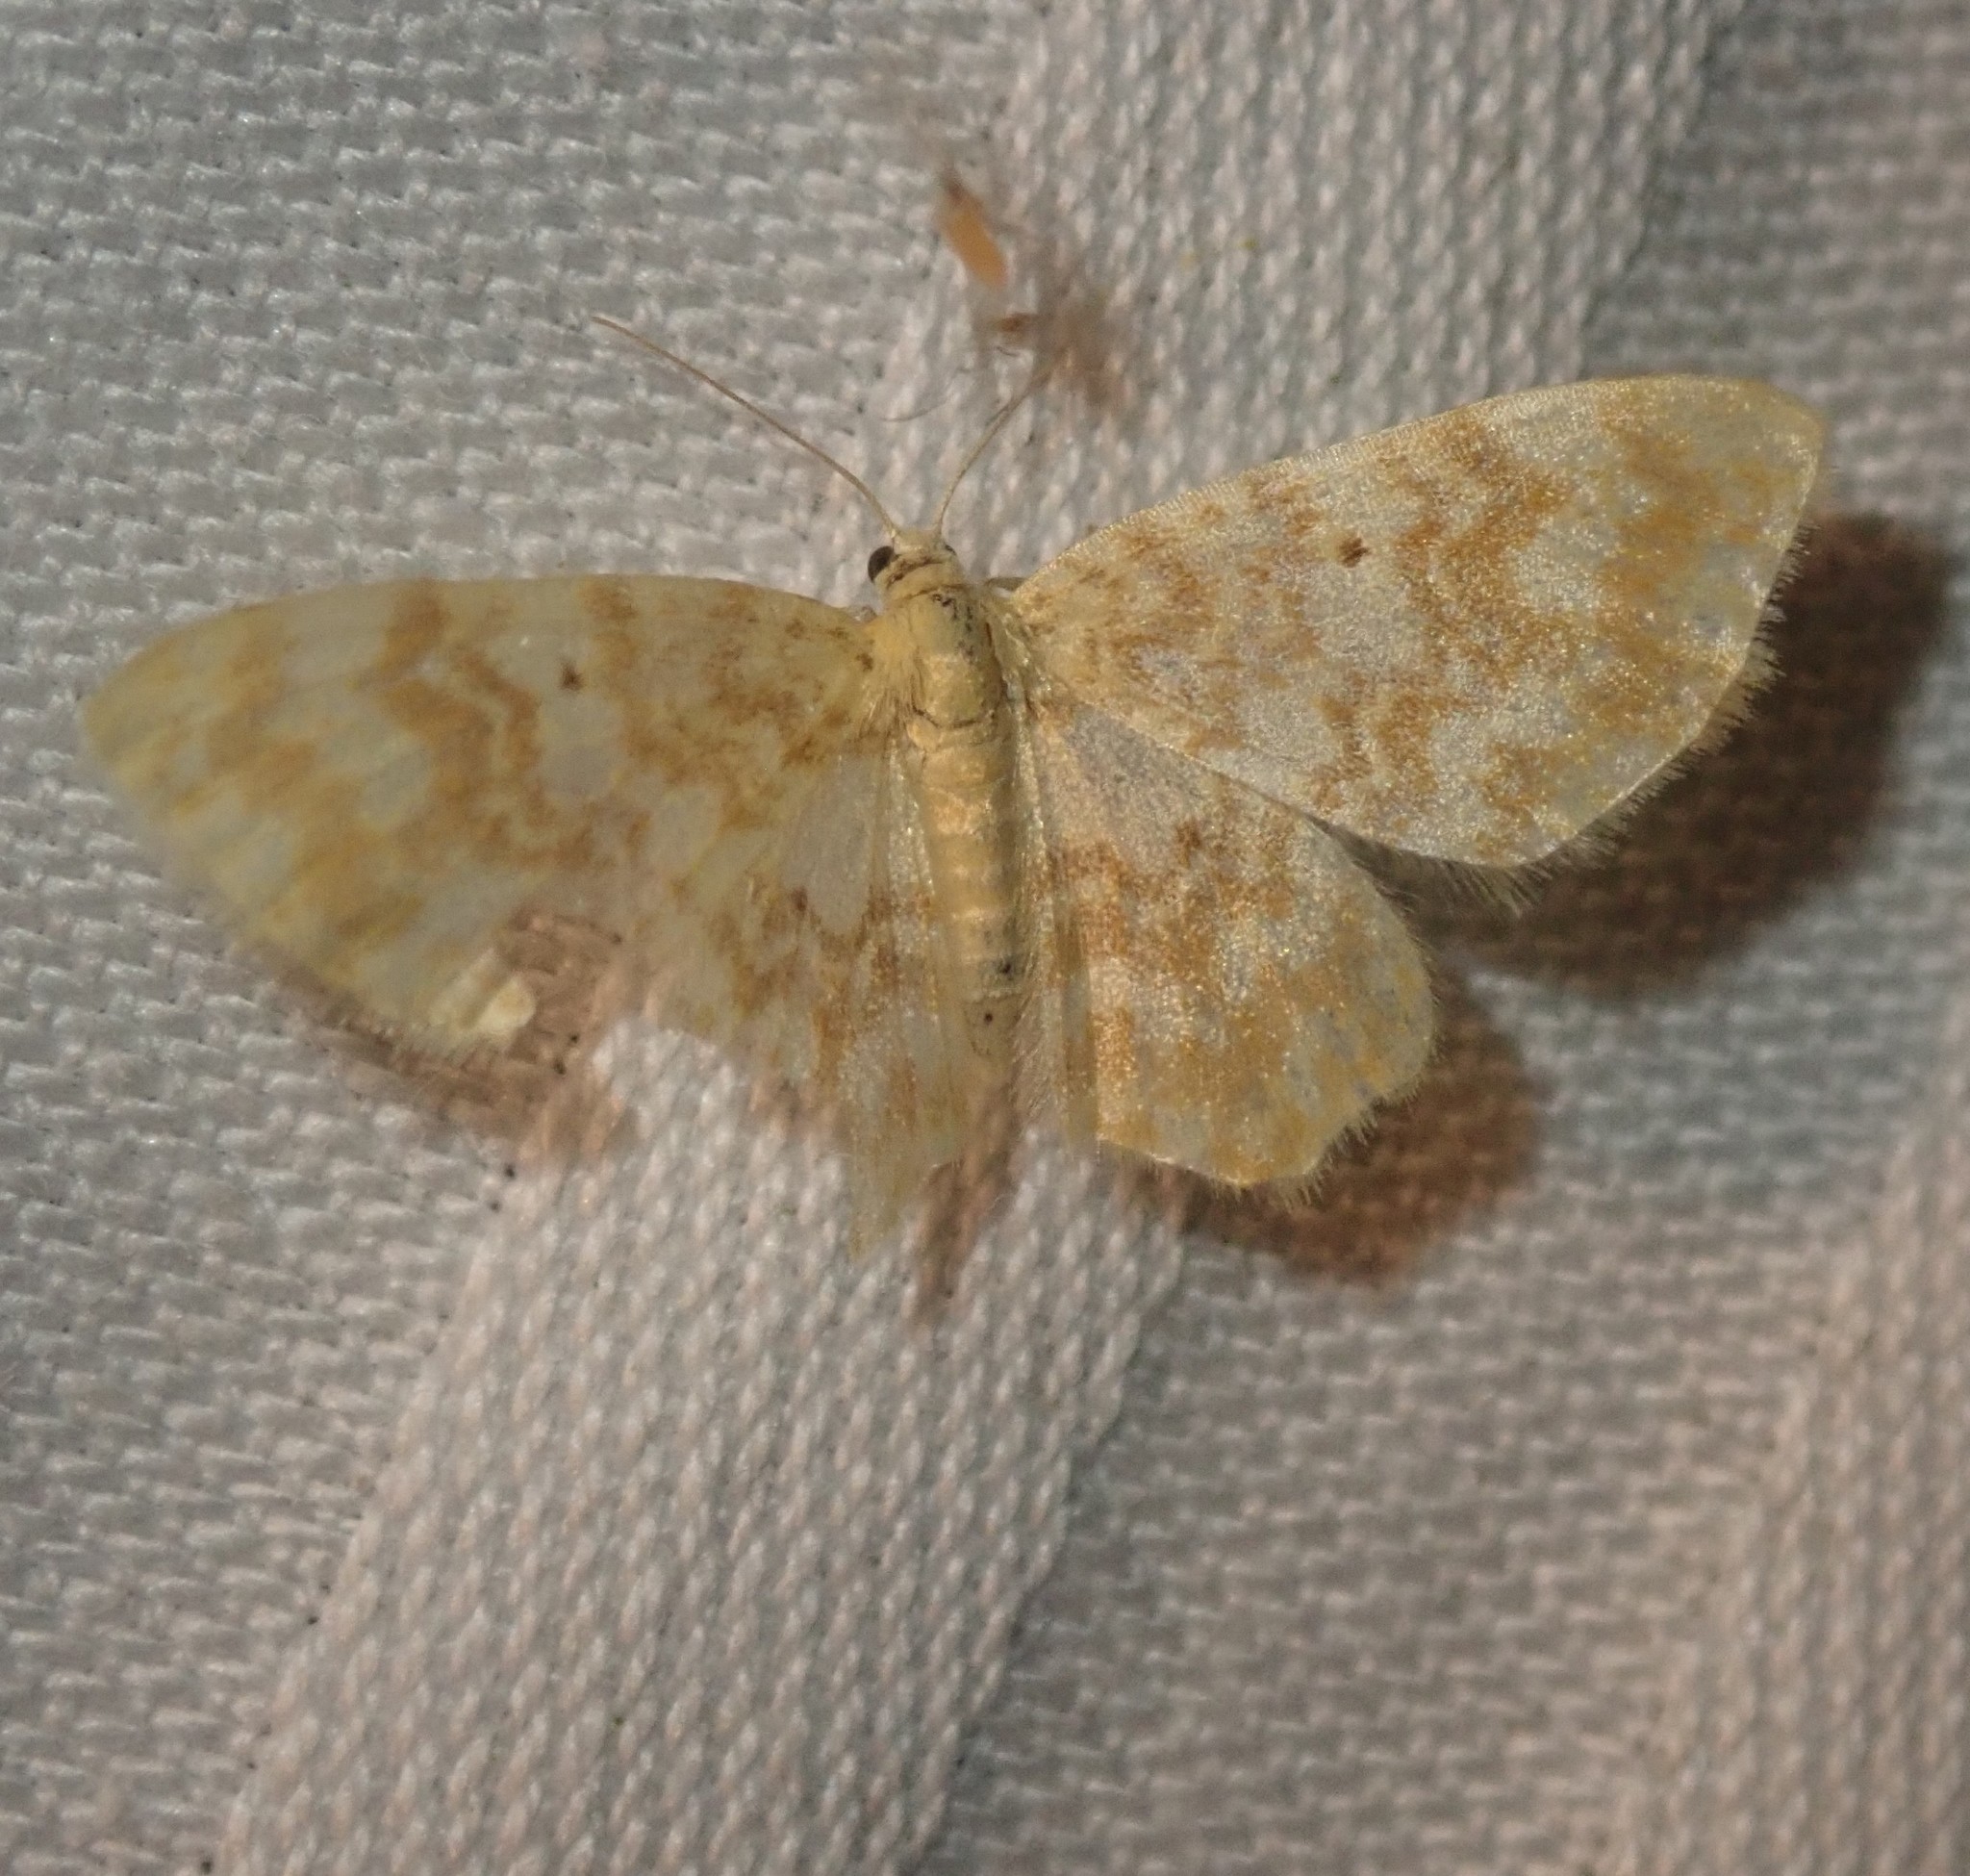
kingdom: Animalia
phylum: Arthropoda
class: Insecta
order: Lepidoptera
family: Geometridae
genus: Hydrelia
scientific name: Hydrelia flammeolaria
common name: Small yellow wave
